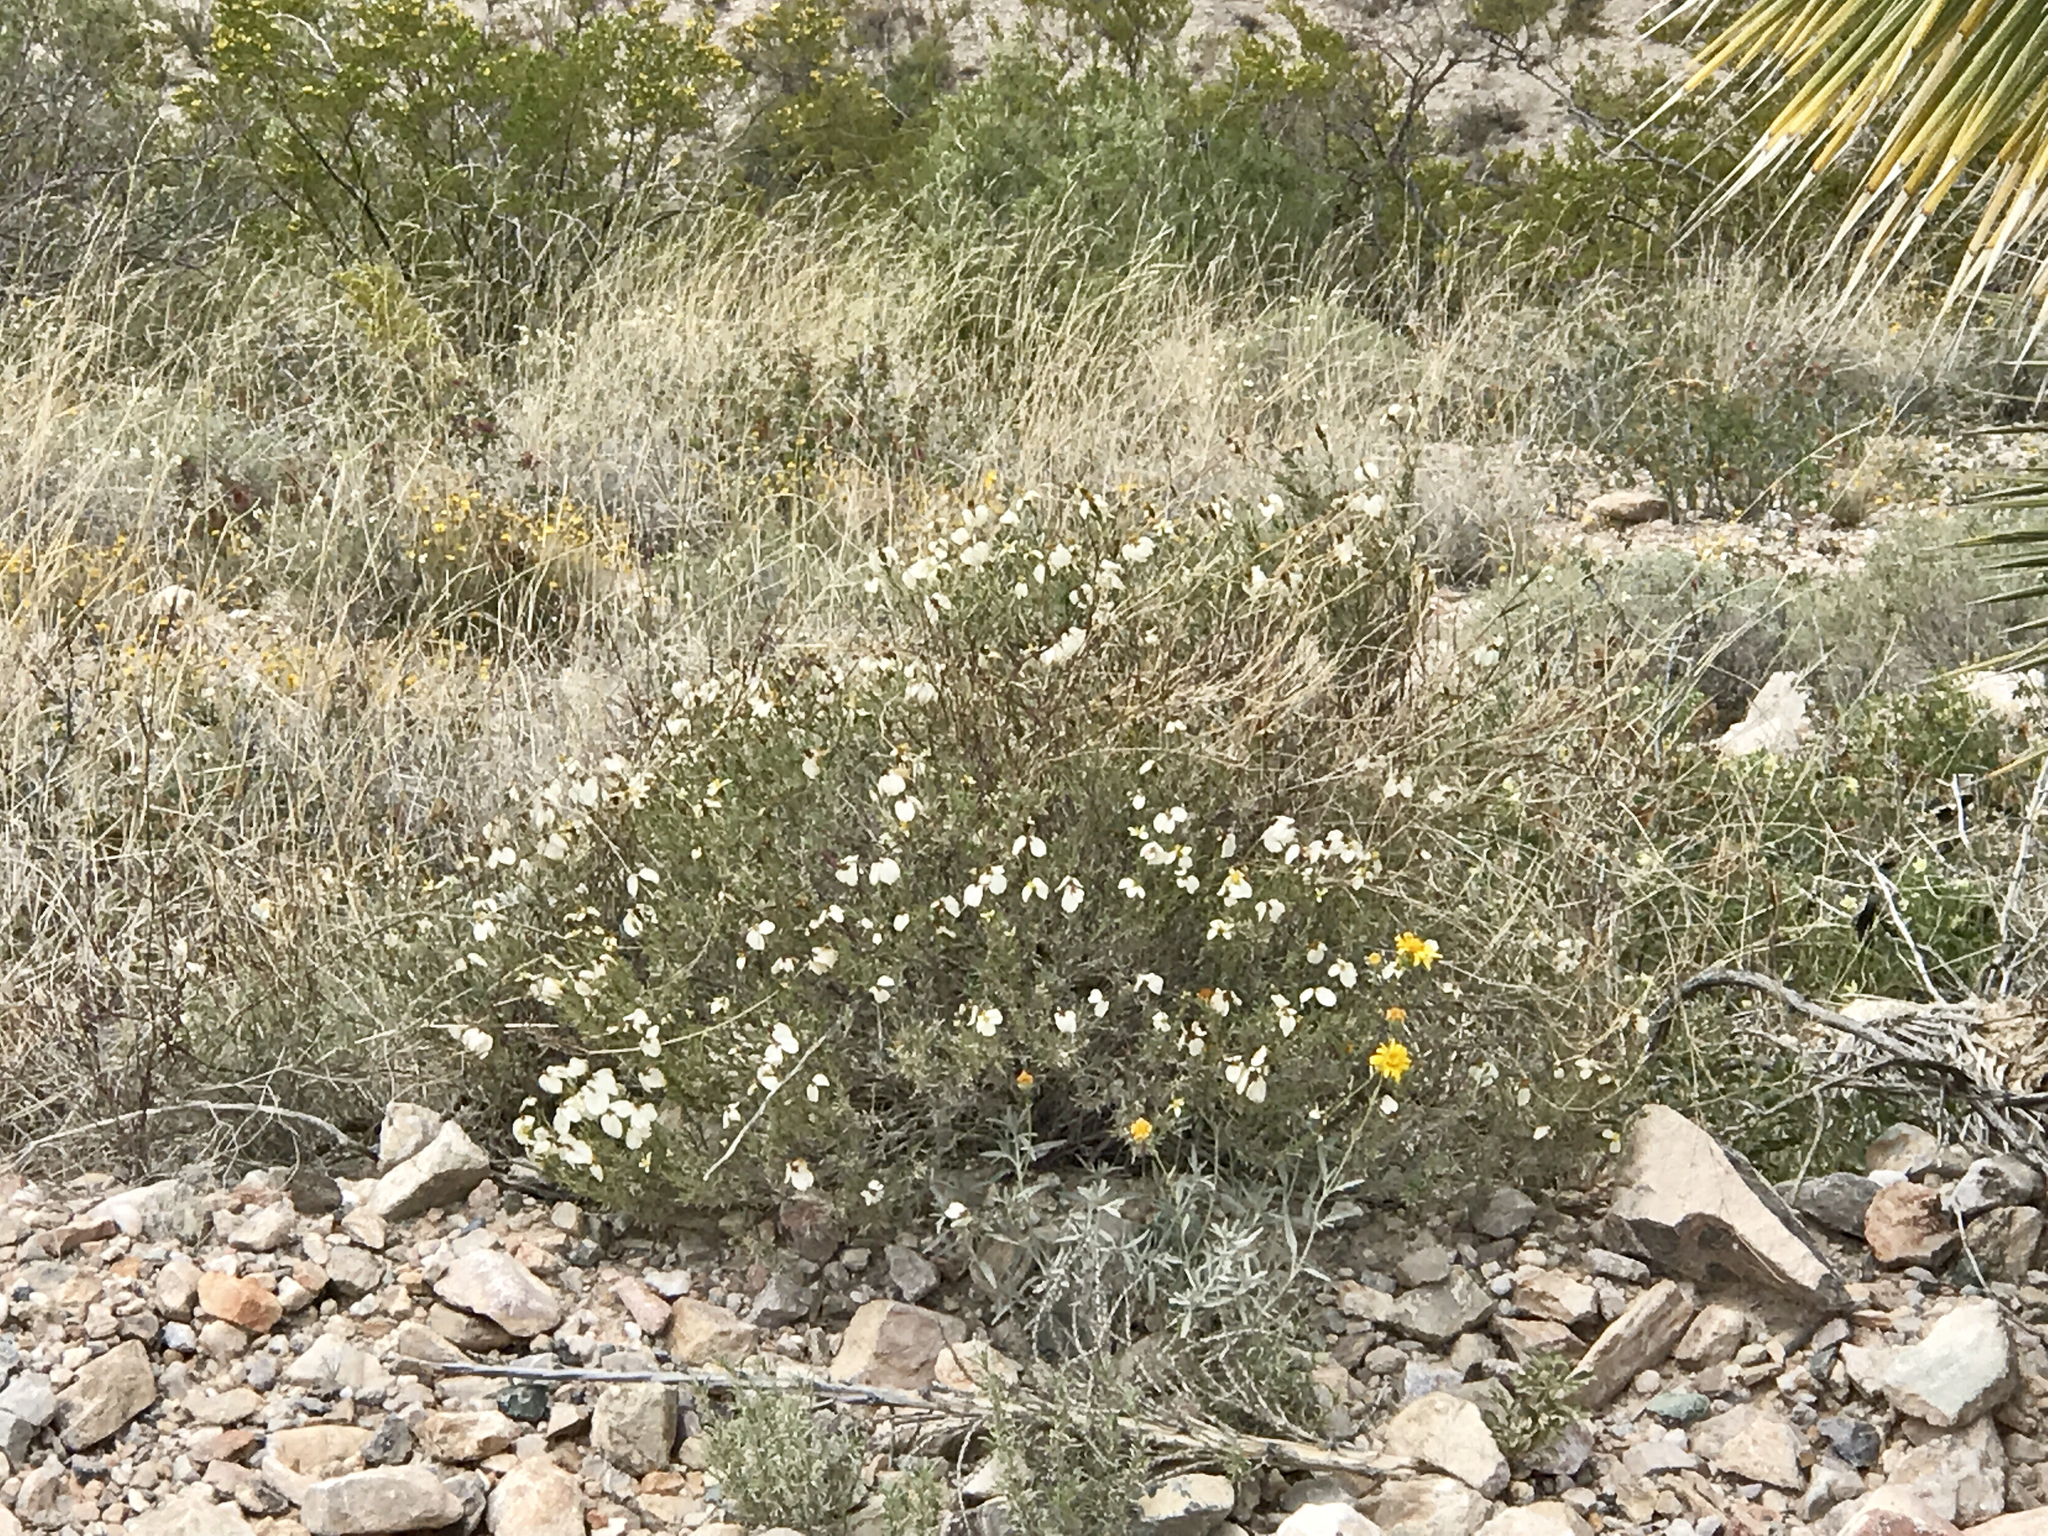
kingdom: Plantae
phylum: Tracheophyta
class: Magnoliopsida
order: Asterales
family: Asteraceae
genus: Zinnia
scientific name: Zinnia acerosa
